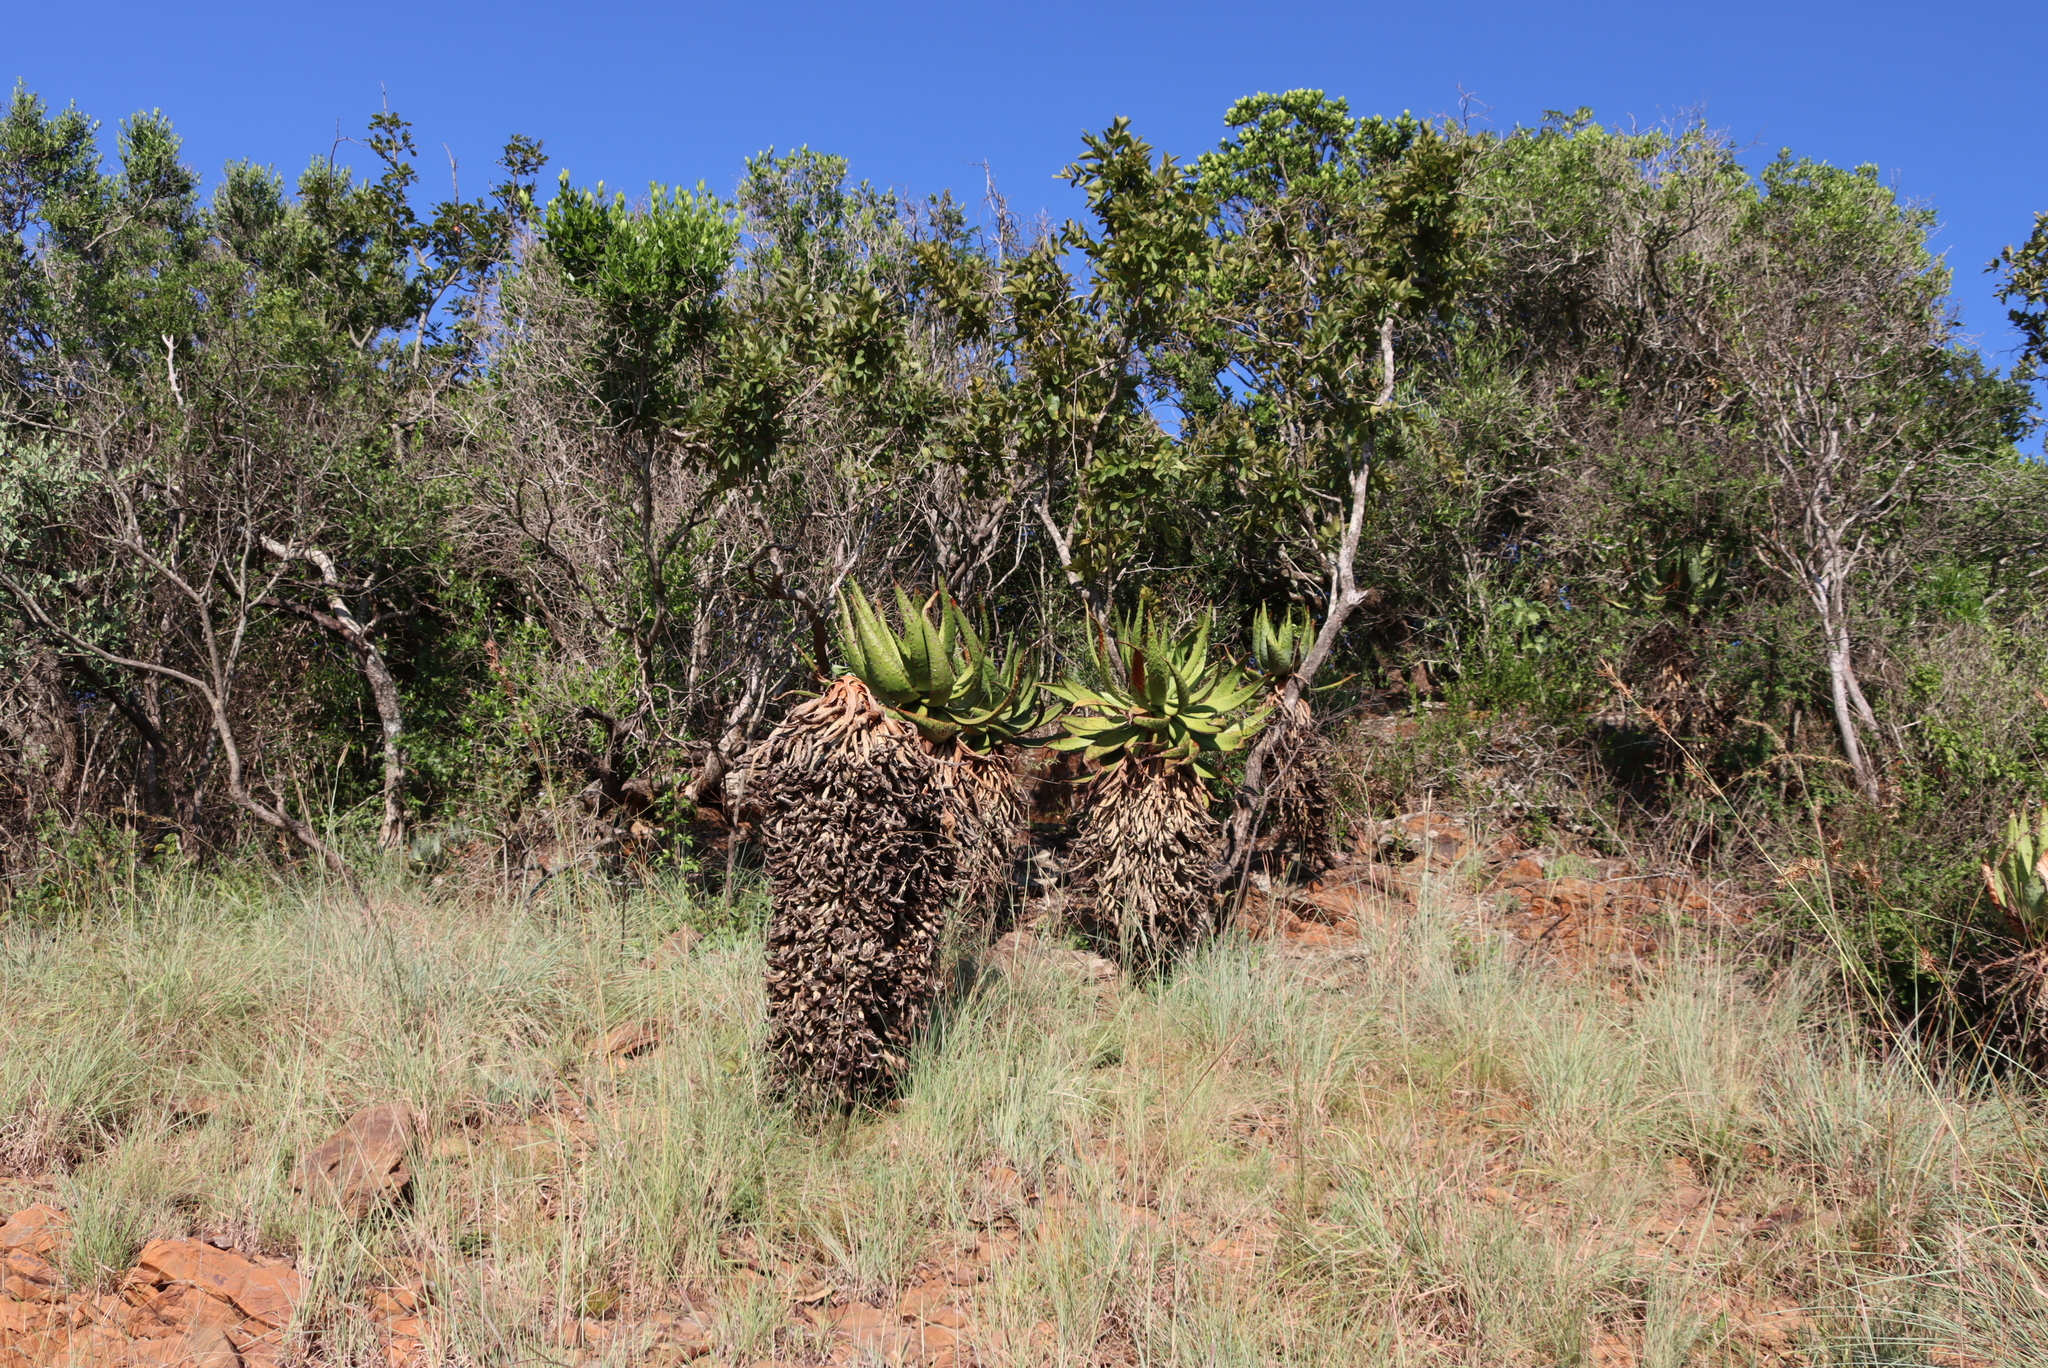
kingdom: Plantae
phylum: Tracheophyta
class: Liliopsida
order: Asparagales
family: Asphodelaceae
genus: Aloe
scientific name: Aloe marlothii
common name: Flat-flowered aloe
